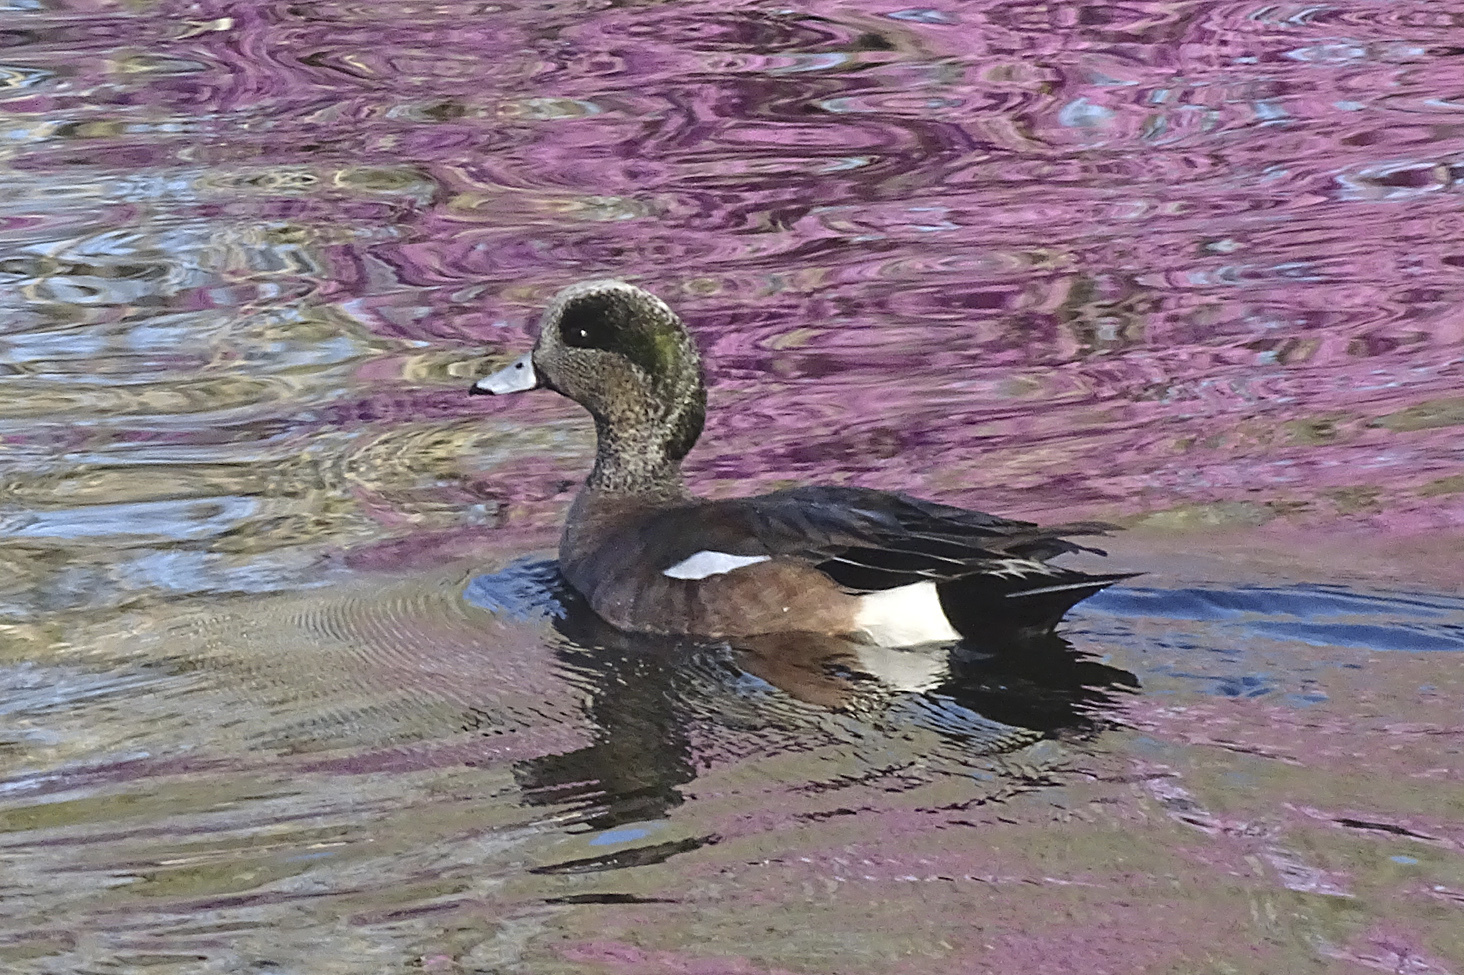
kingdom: Animalia
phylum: Chordata
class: Aves
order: Anseriformes
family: Anatidae
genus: Mareca
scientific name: Mareca americana
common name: American wigeon
